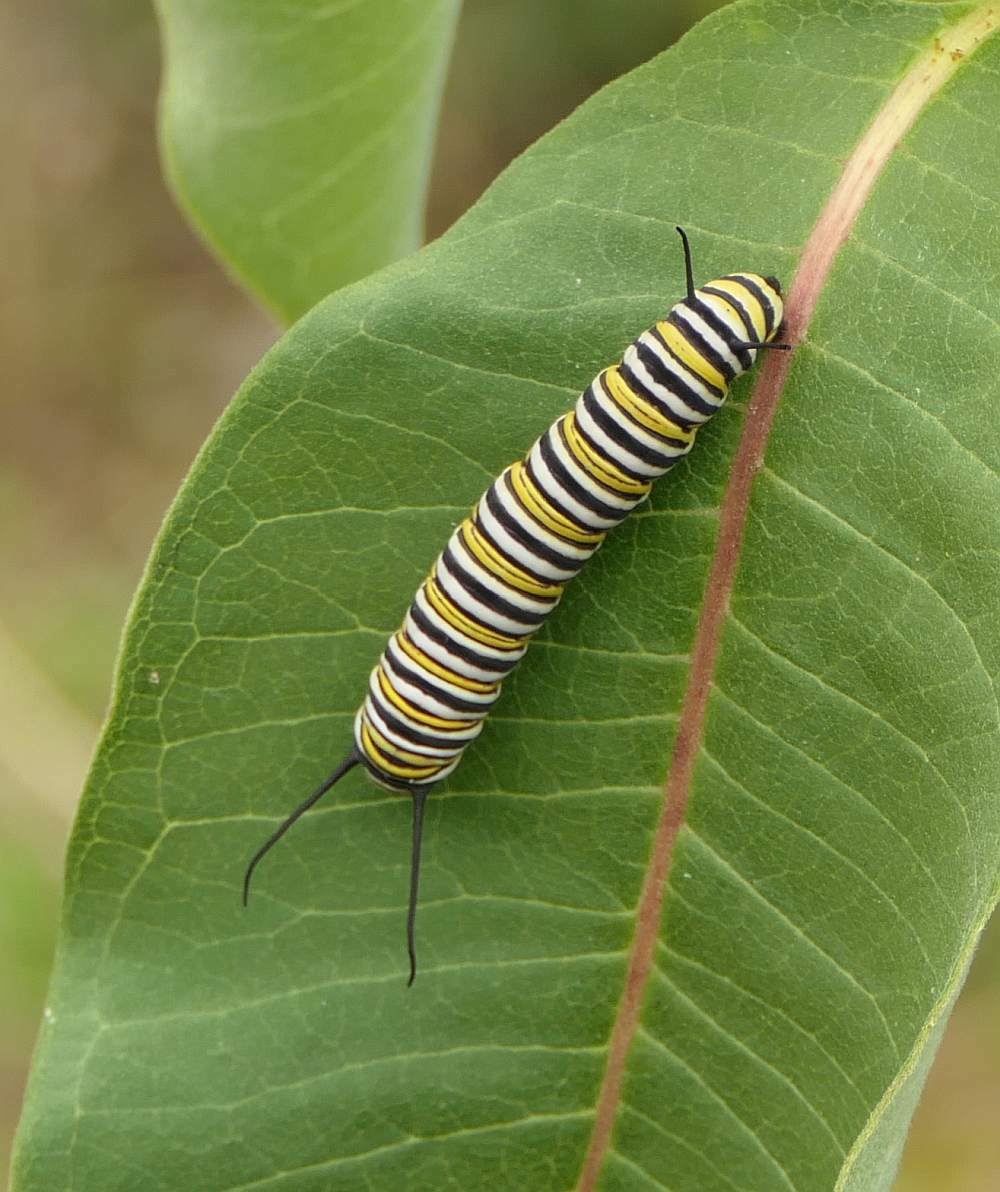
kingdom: Animalia
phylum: Arthropoda
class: Insecta
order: Lepidoptera
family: Nymphalidae
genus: Danaus
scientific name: Danaus plexippus
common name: Monarch
